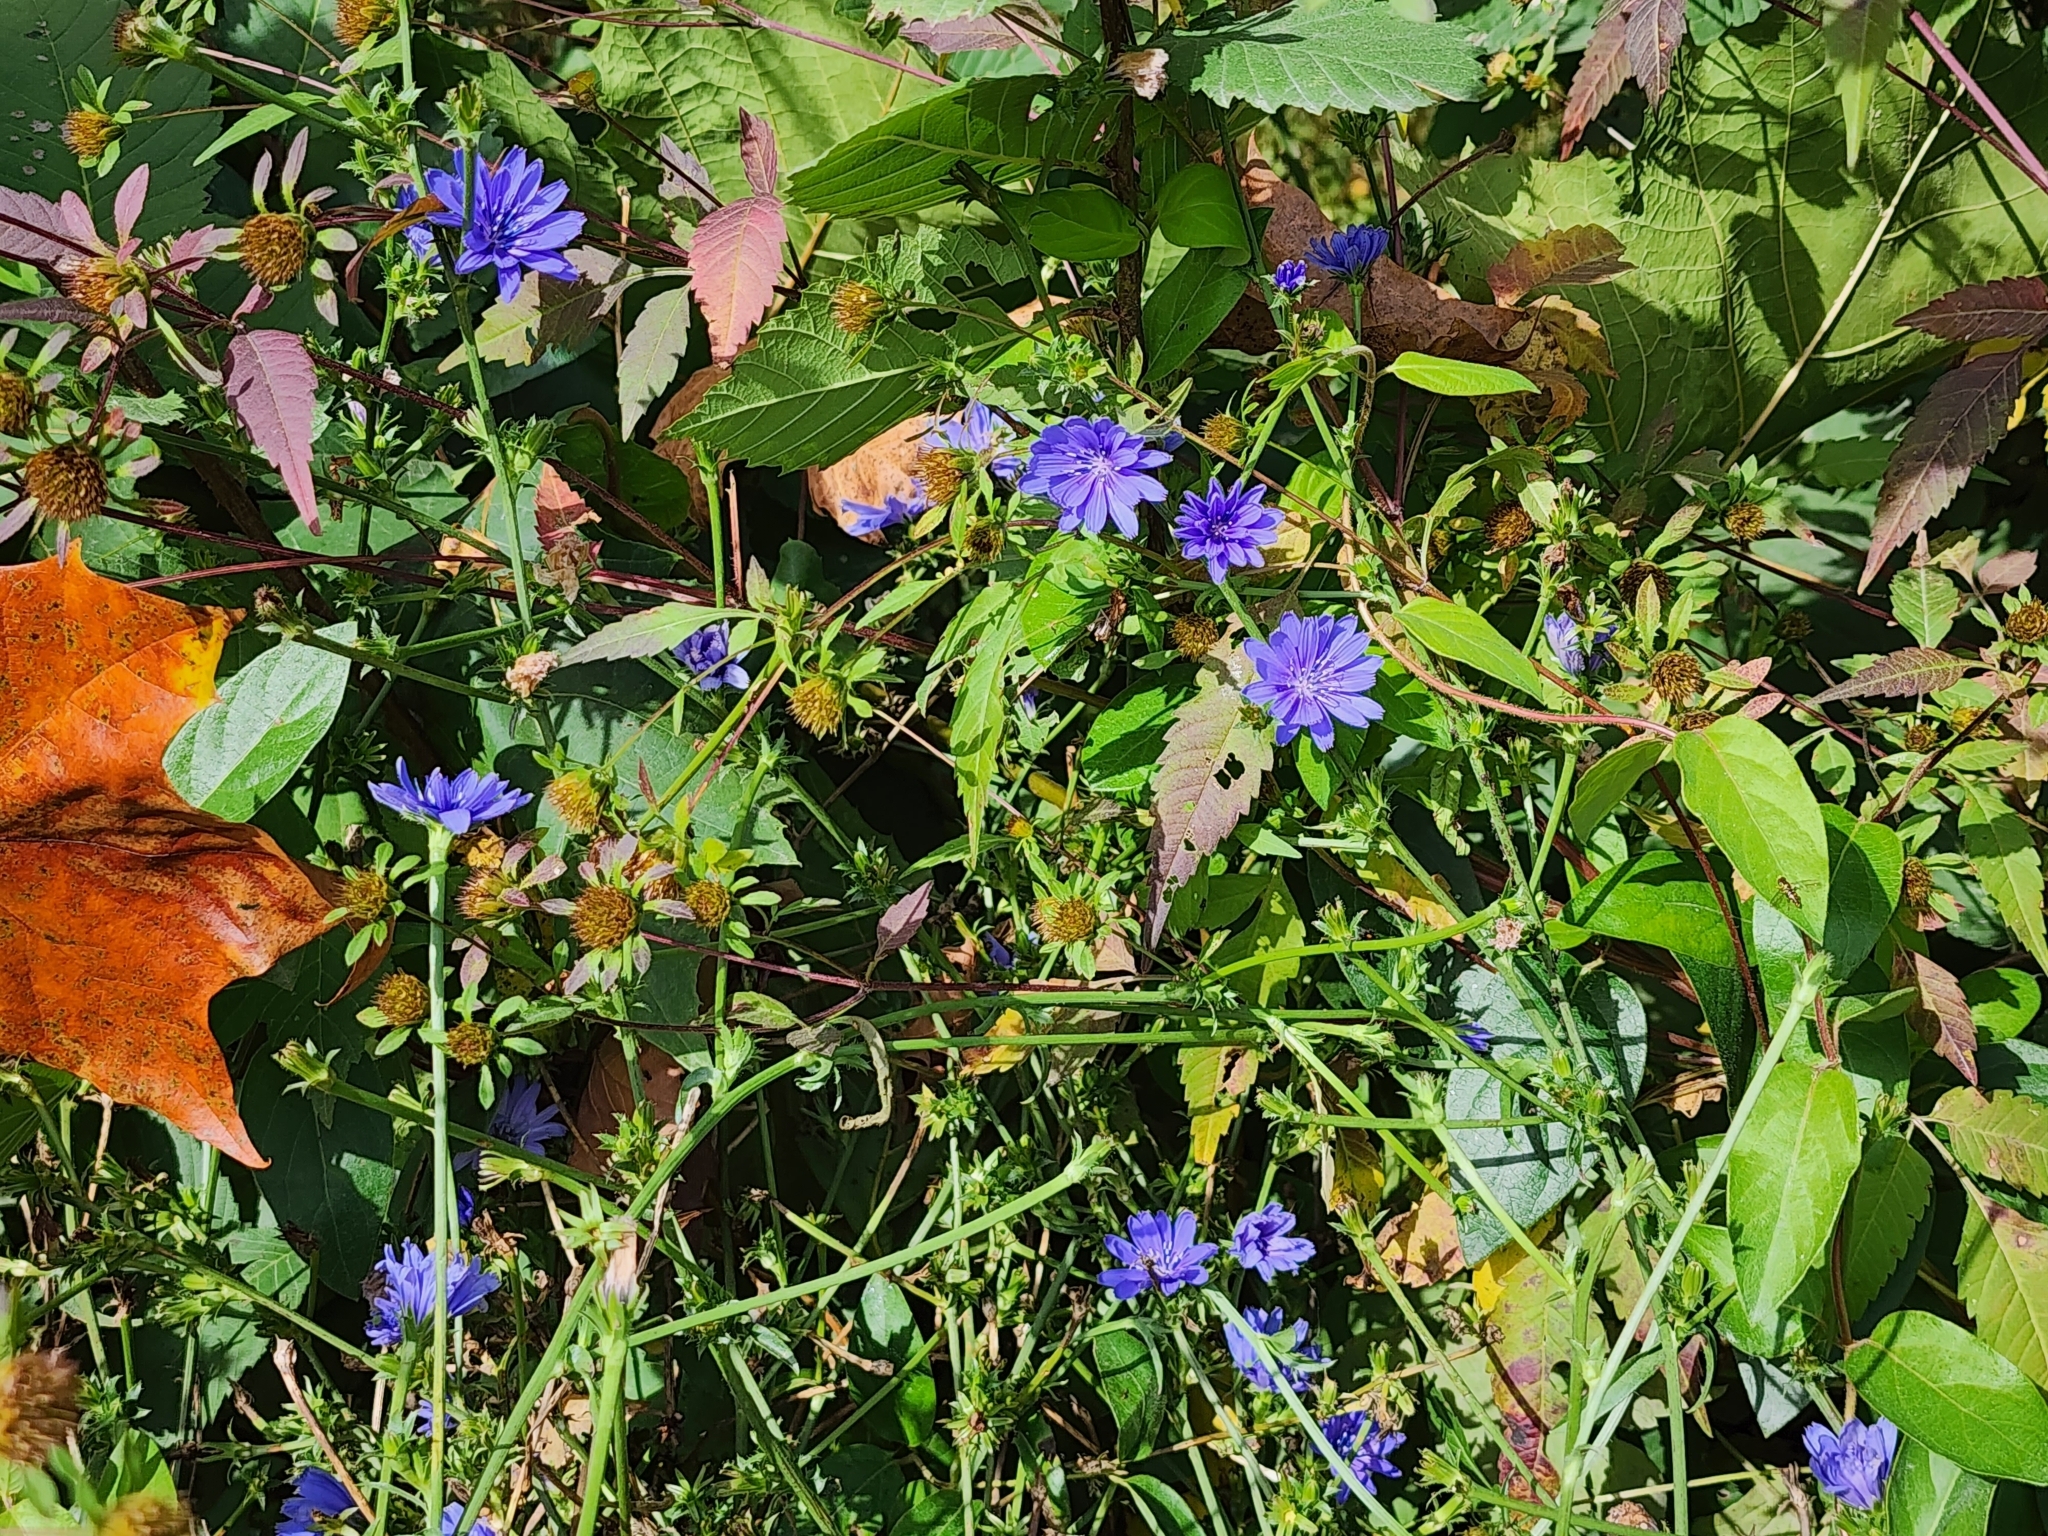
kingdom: Plantae
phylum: Tracheophyta
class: Magnoliopsida
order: Asterales
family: Asteraceae
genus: Cichorium
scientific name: Cichorium intybus
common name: Chicory
